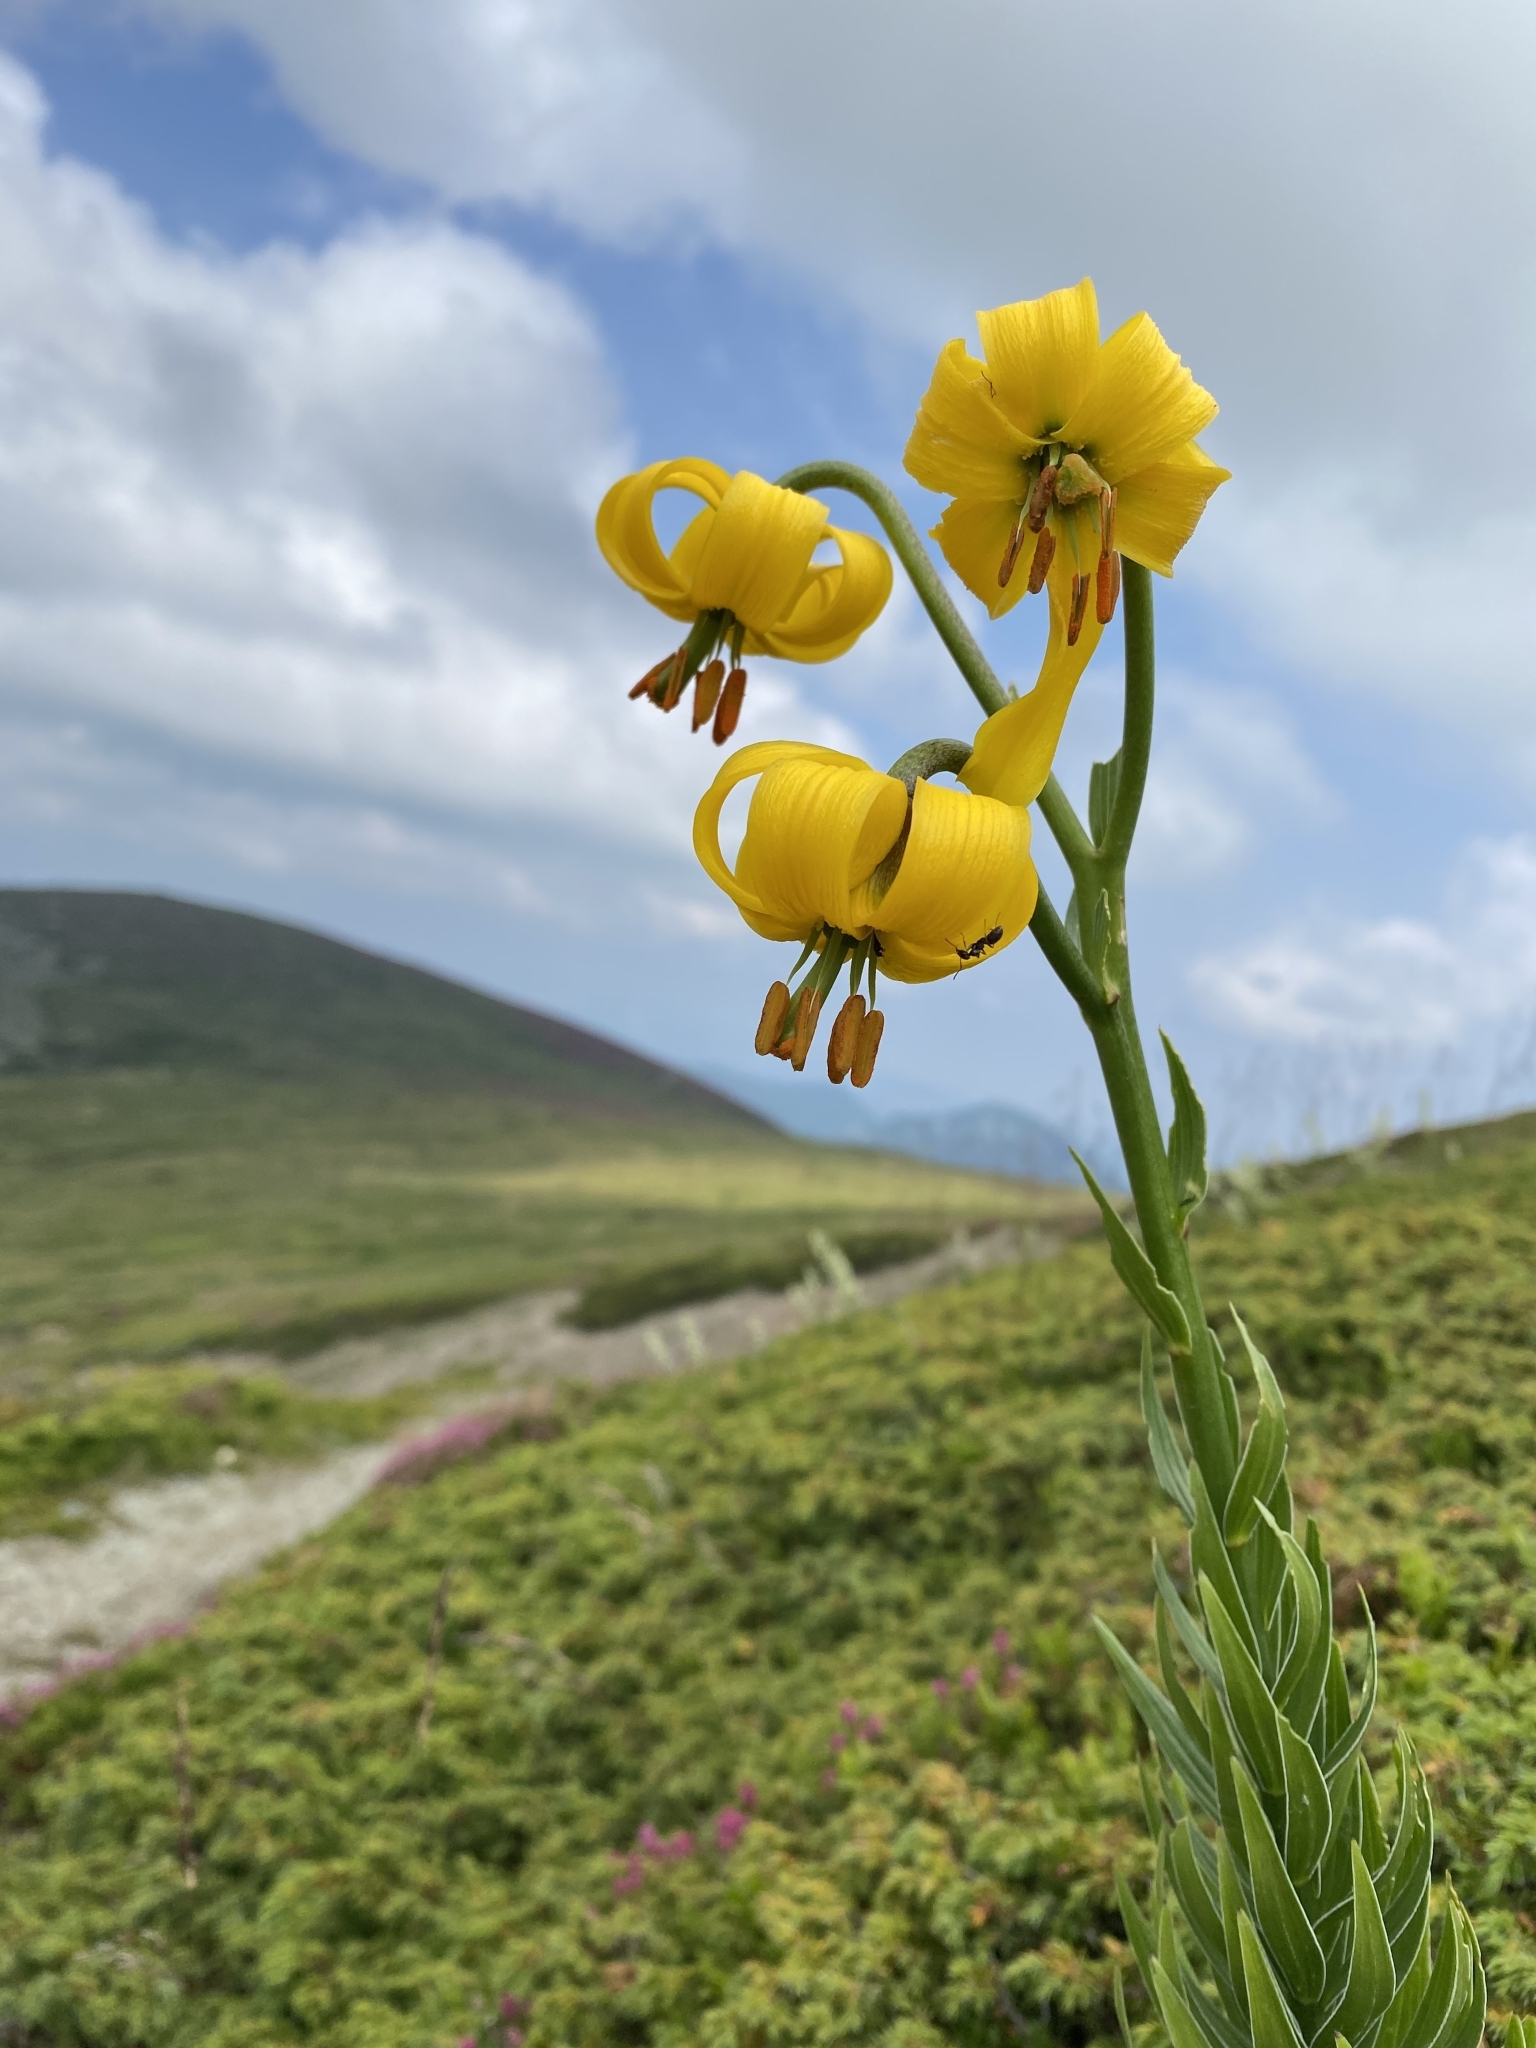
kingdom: Plantae
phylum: Tracheophyta
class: Liliopsida
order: Liliales
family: Liliaceae
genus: Lilium
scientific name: Lilium albanicum
